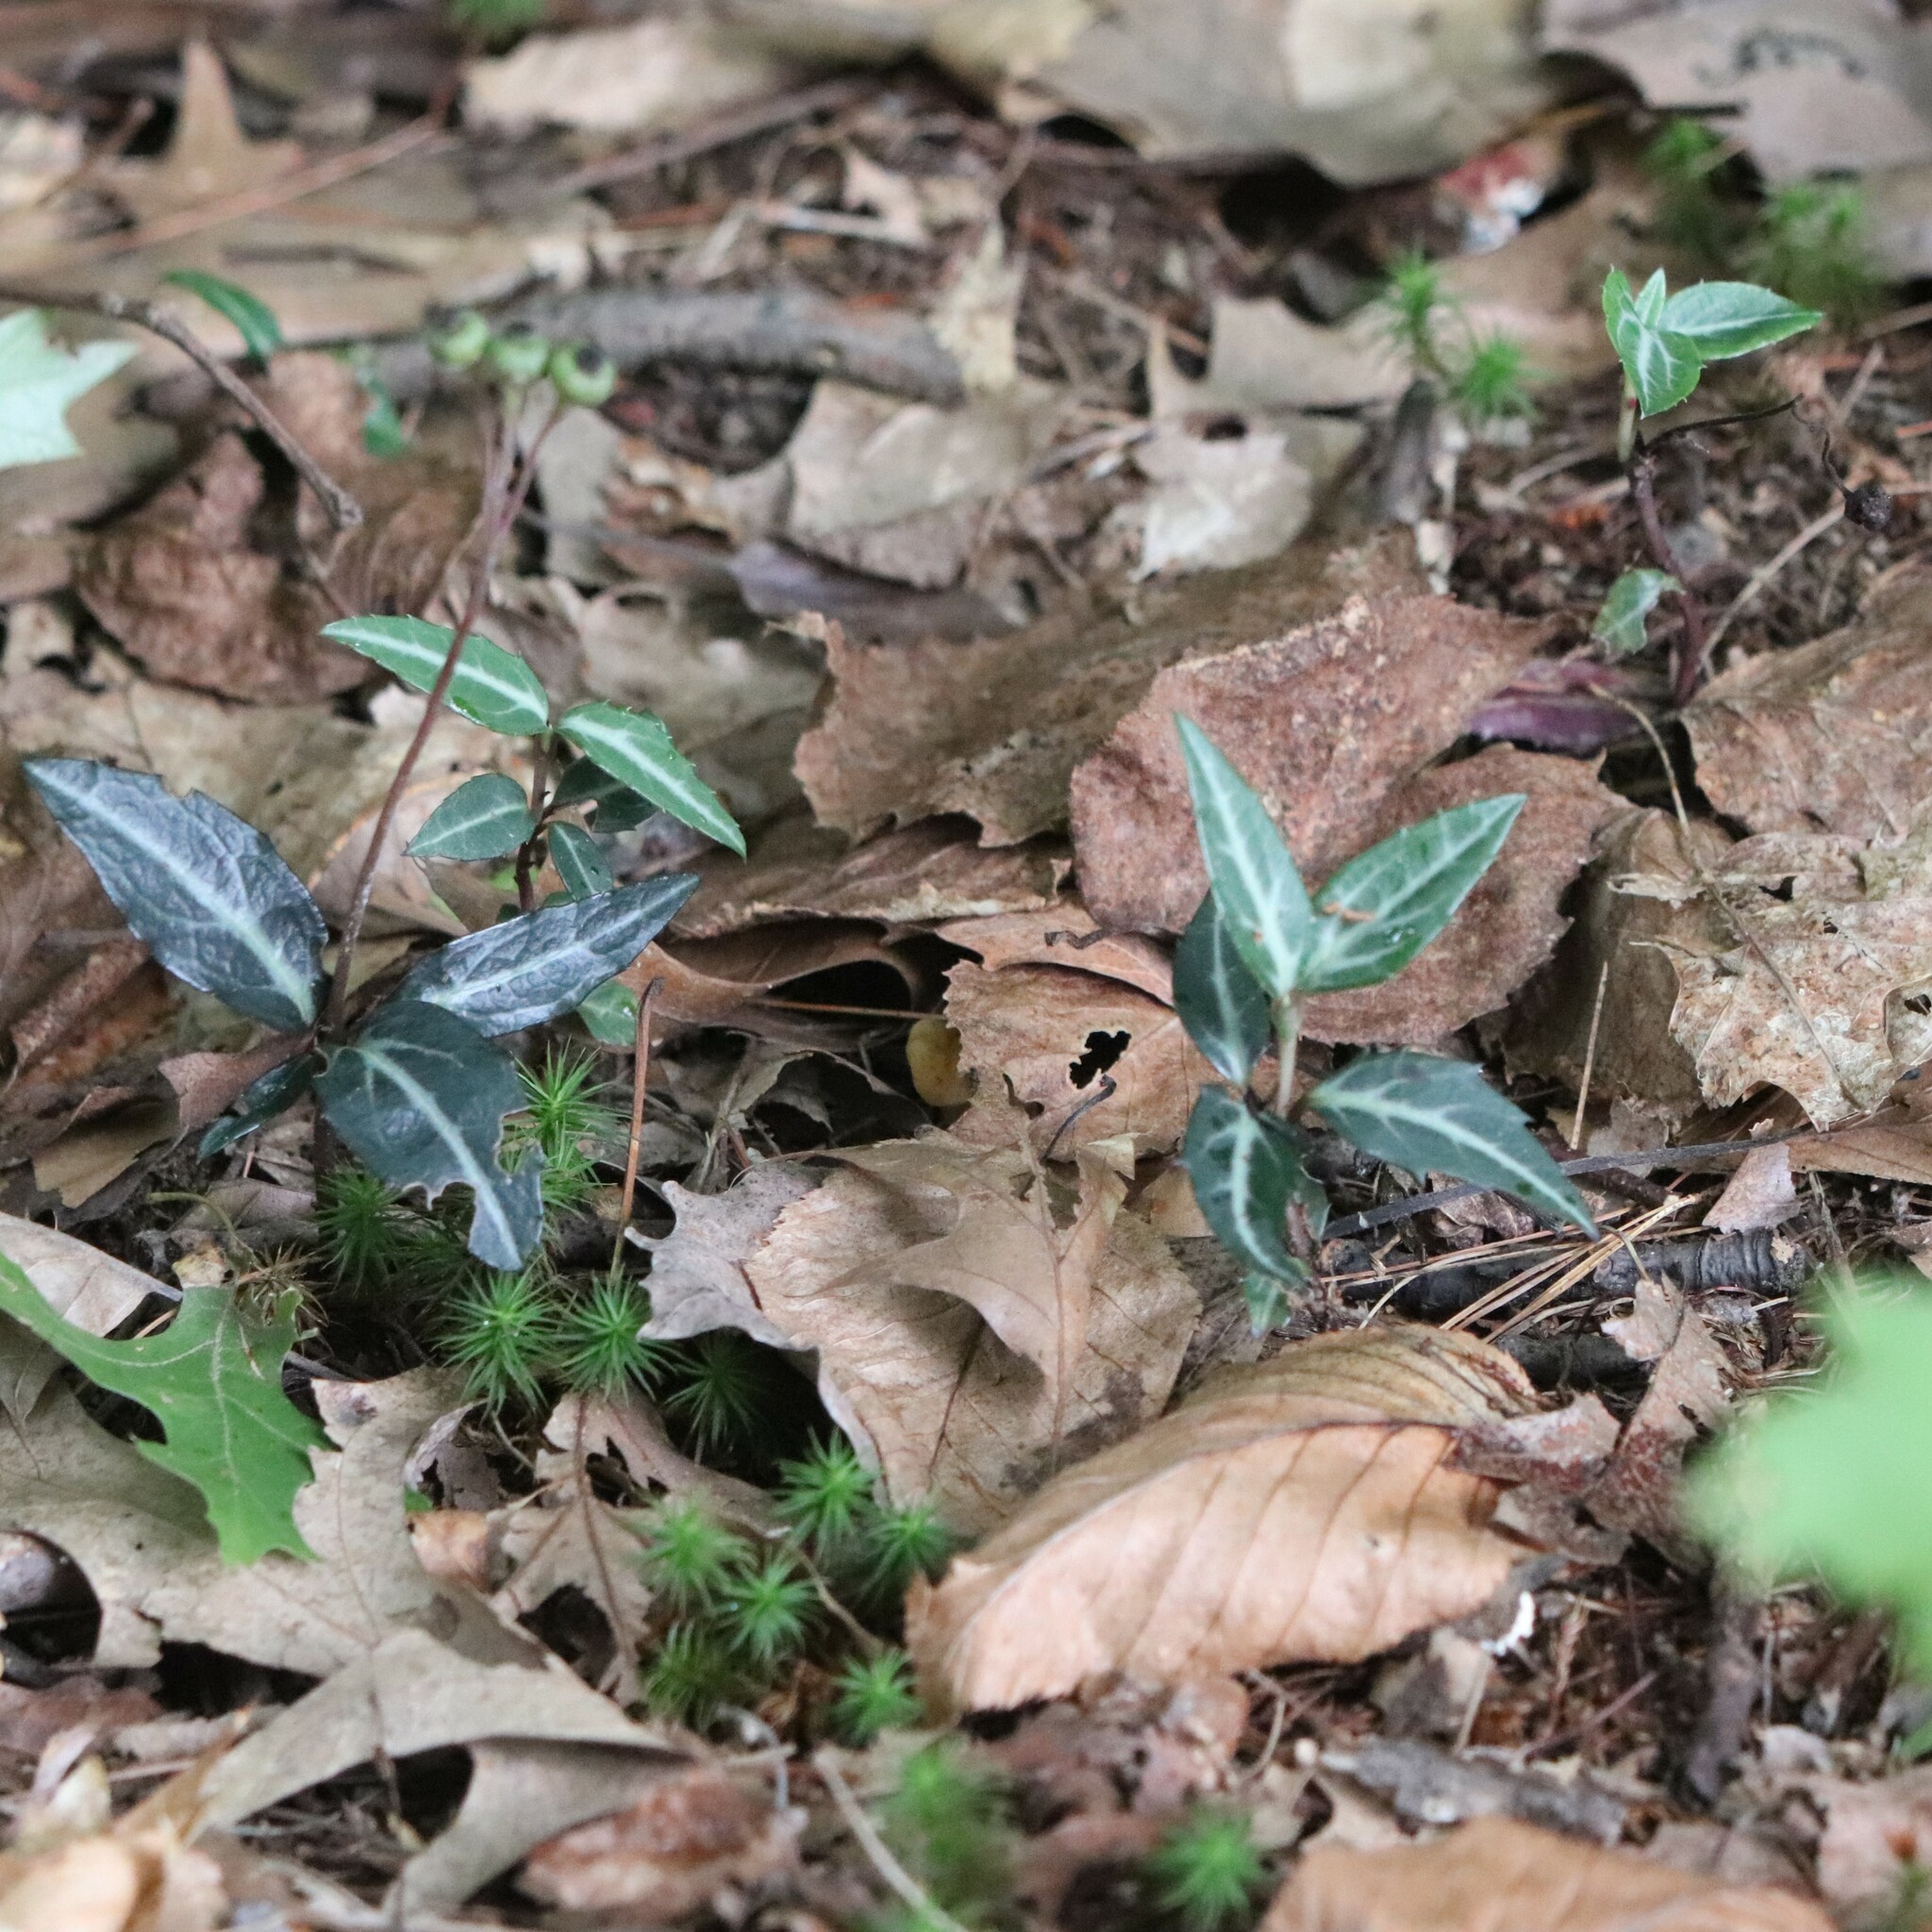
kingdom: Plantae
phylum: Tracheophyta
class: Magnoliopsida
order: Ericales
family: Ericaceae
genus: Chimaphila
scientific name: Chimaphila maculata
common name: Spotted pipsissewa
